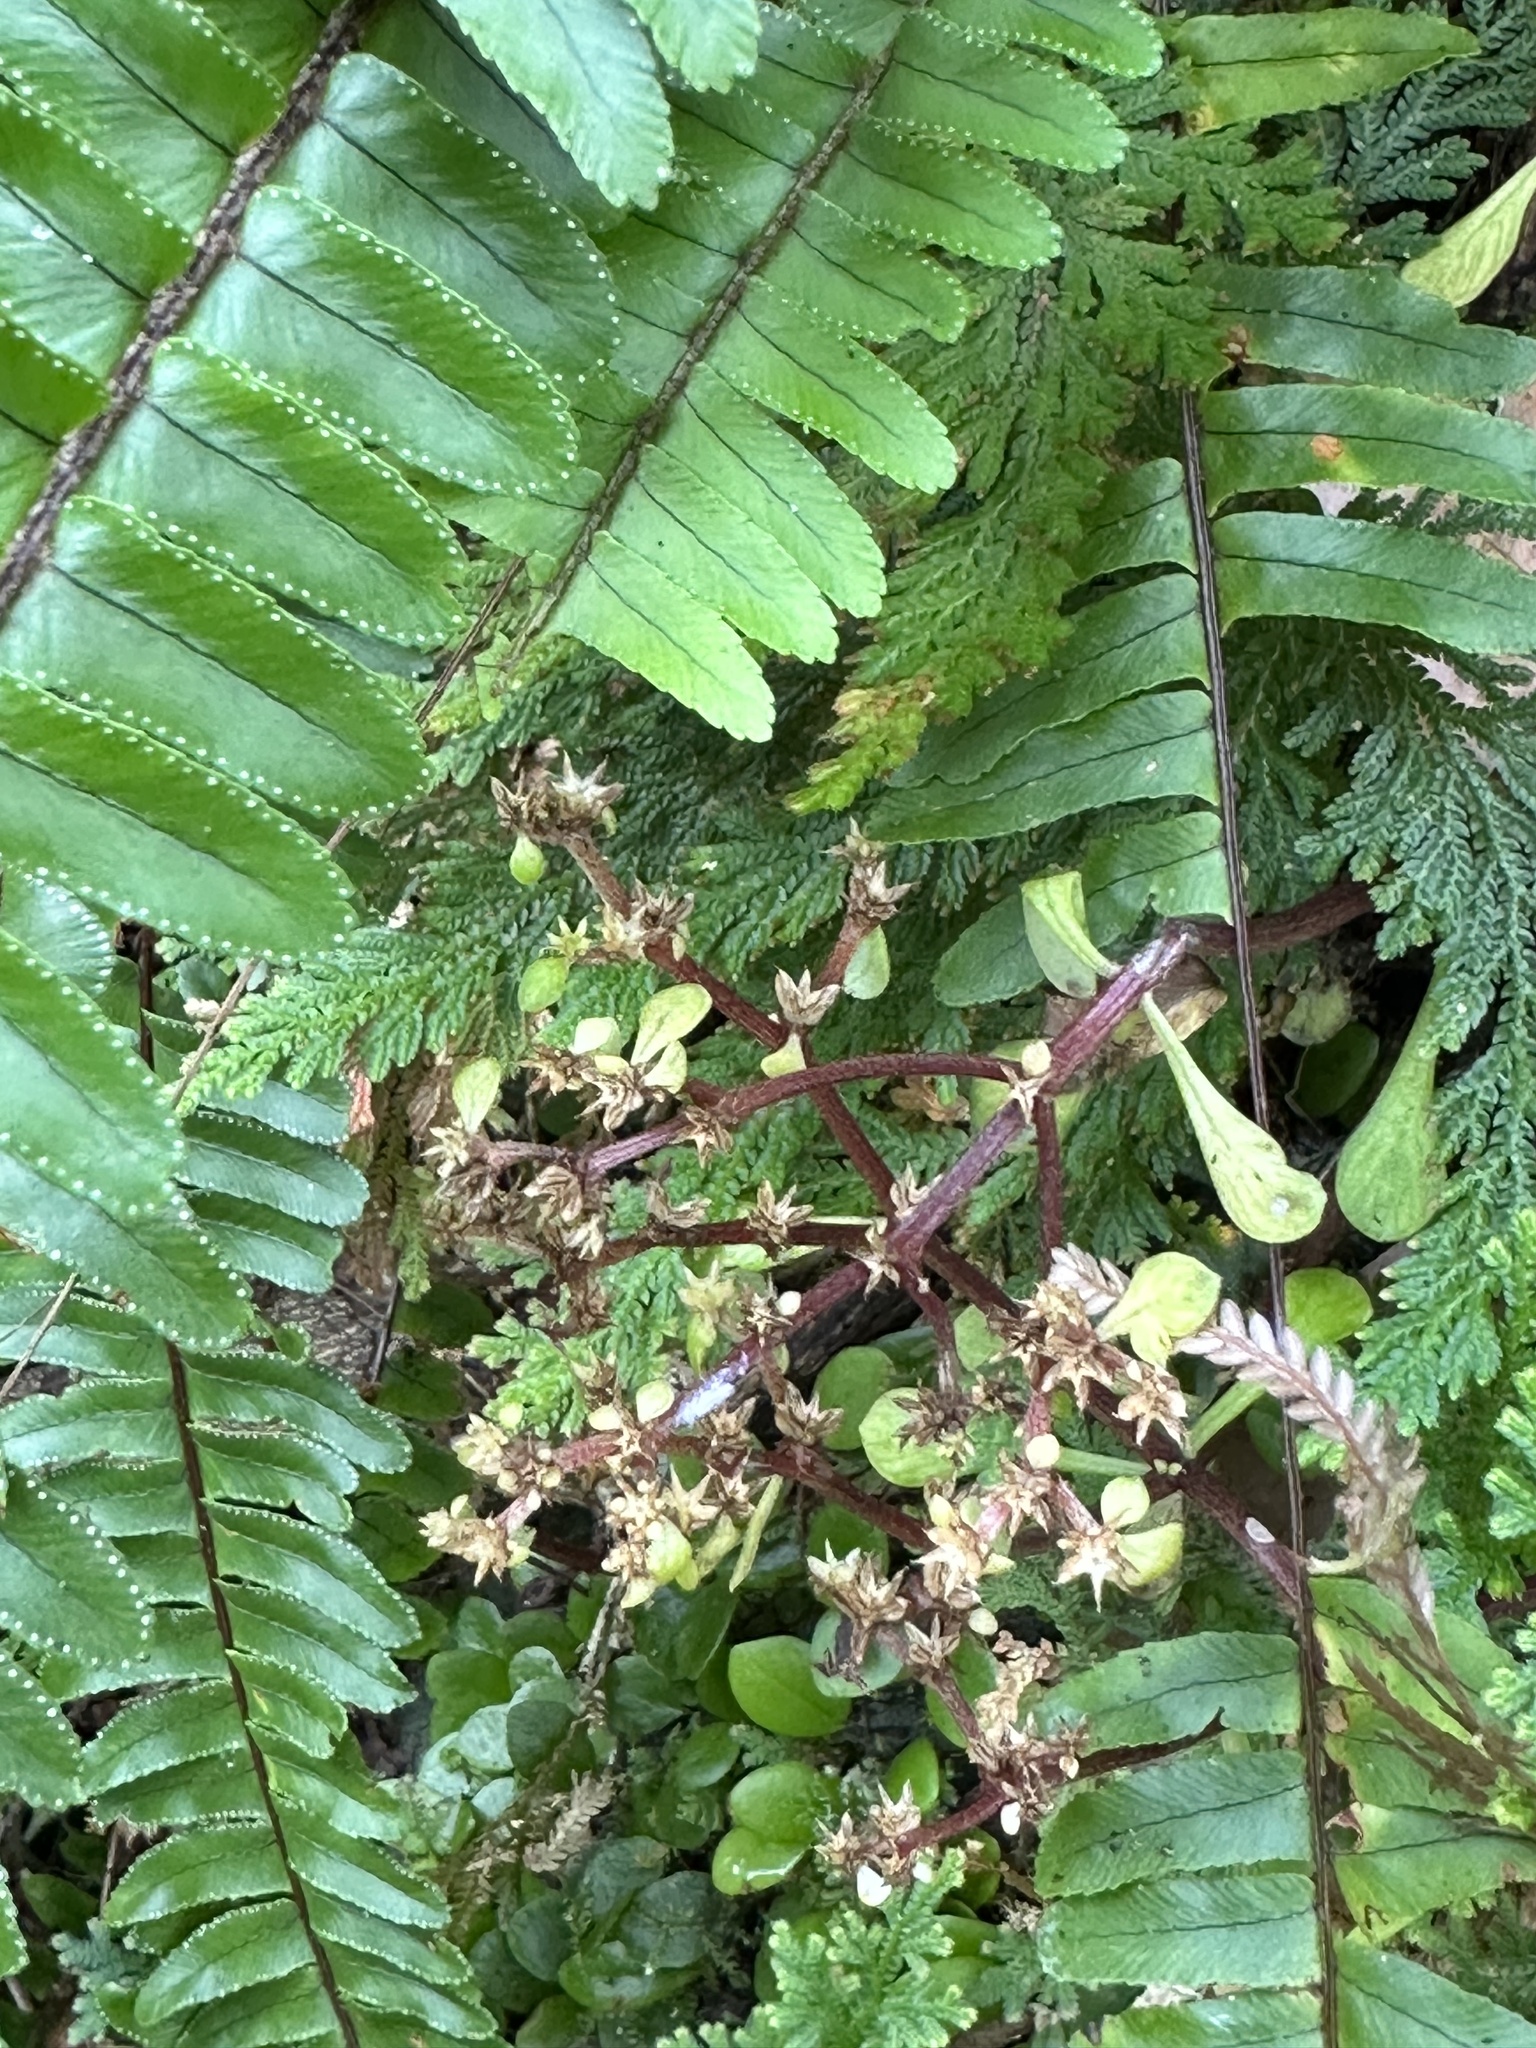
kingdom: Plantae
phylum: Tracheophyta
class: Magnoliopsida
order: Saxifragales
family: Crassulaceae
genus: Sedum
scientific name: Sedum actinocarpum
